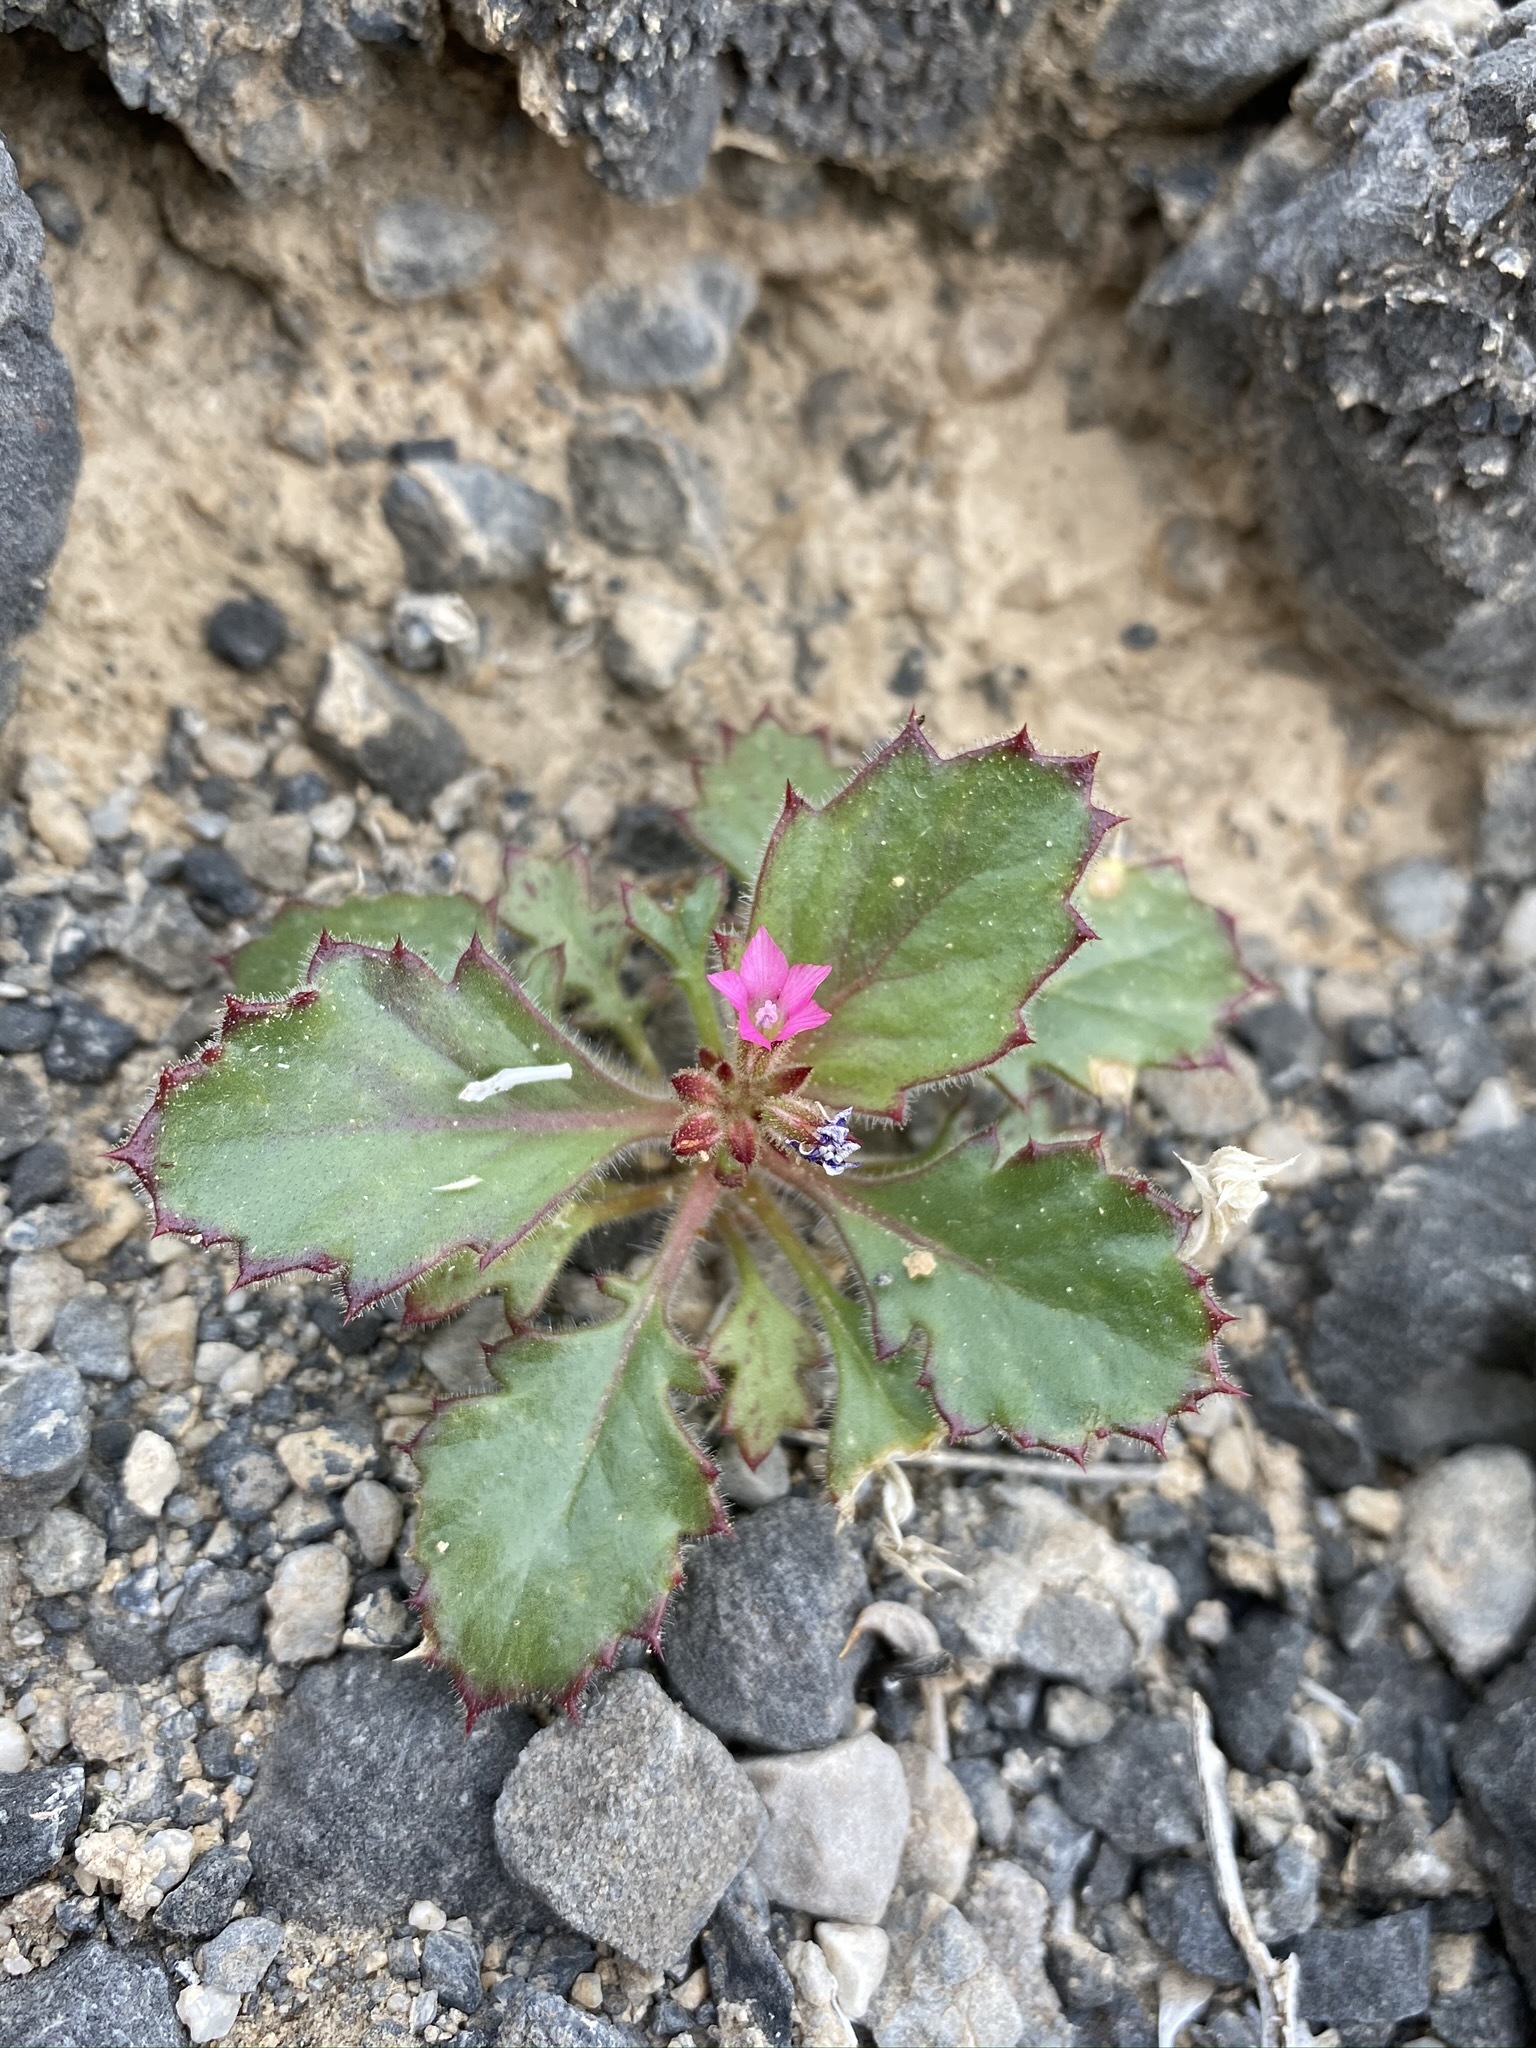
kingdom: Plantae
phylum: Tracheophyta
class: Magnoliopsida
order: Ericales
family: Polemoniaceae
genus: Aliciella
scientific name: Aliciella latifolia
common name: Broad-leaf gilia
